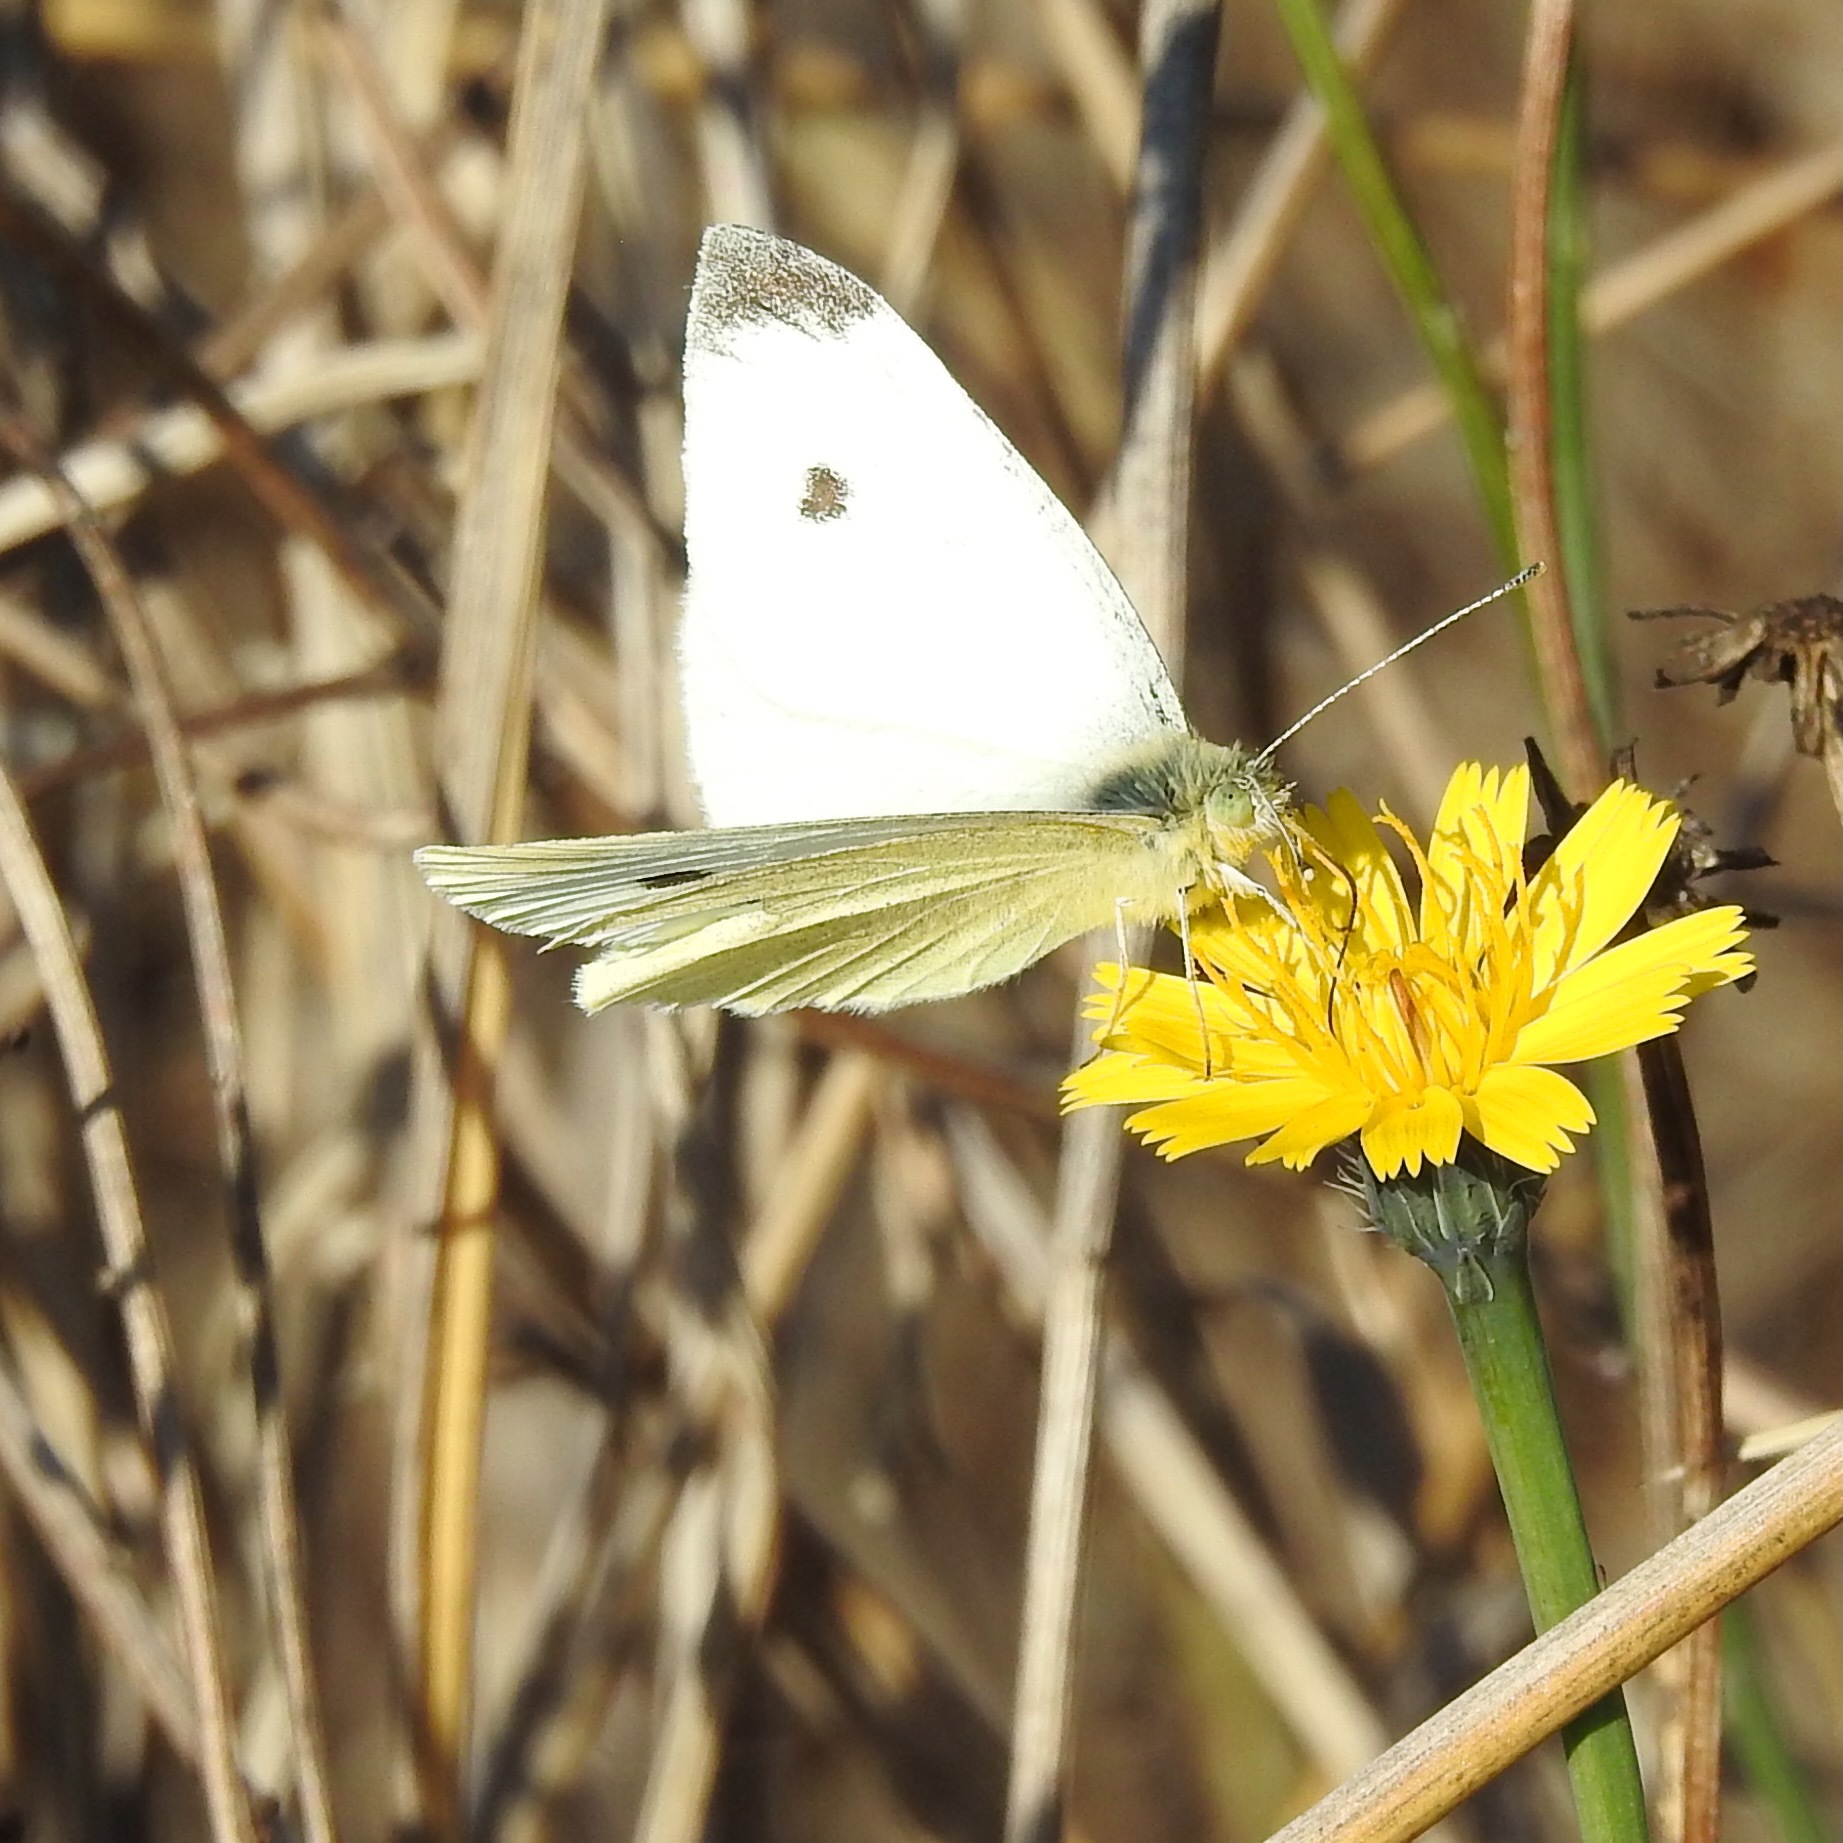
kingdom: Animalia
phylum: Arthropoda
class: Insecta
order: Lepidoptera
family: Pieridae
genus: Pieris
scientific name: Pieris rapae
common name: Small white
